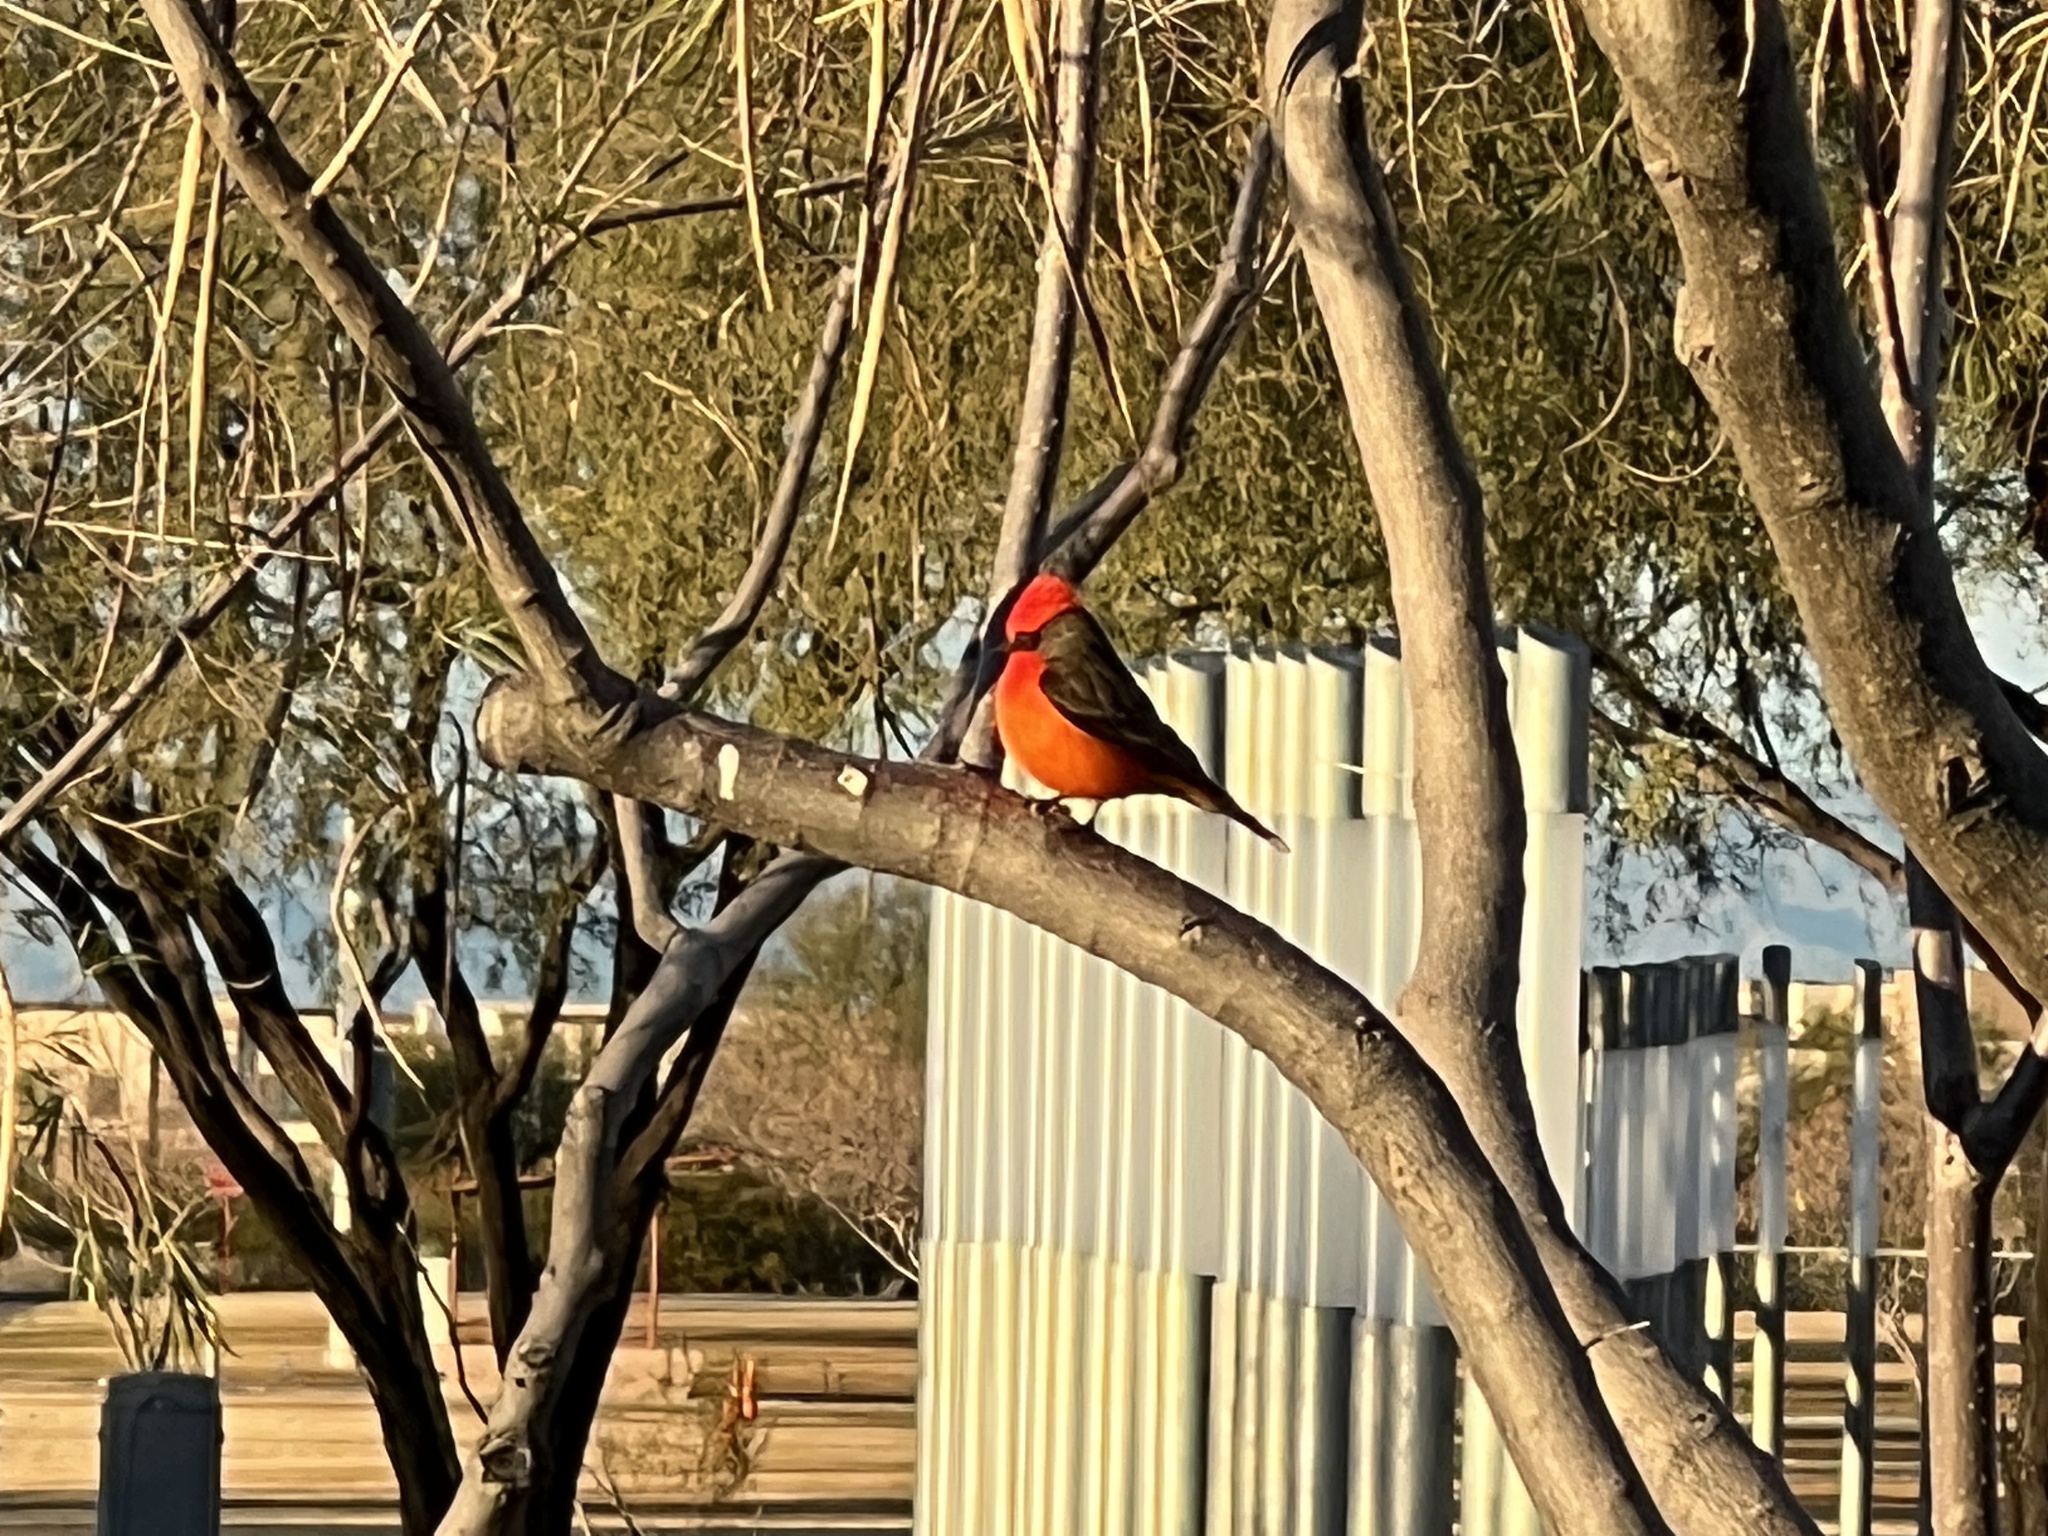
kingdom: Animalia
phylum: Chordata
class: Aves
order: Passeriformes
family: Tyrannidae
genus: Pyrocephalus
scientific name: Pyrocephalus rubinus
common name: Vermilion flycatcher
